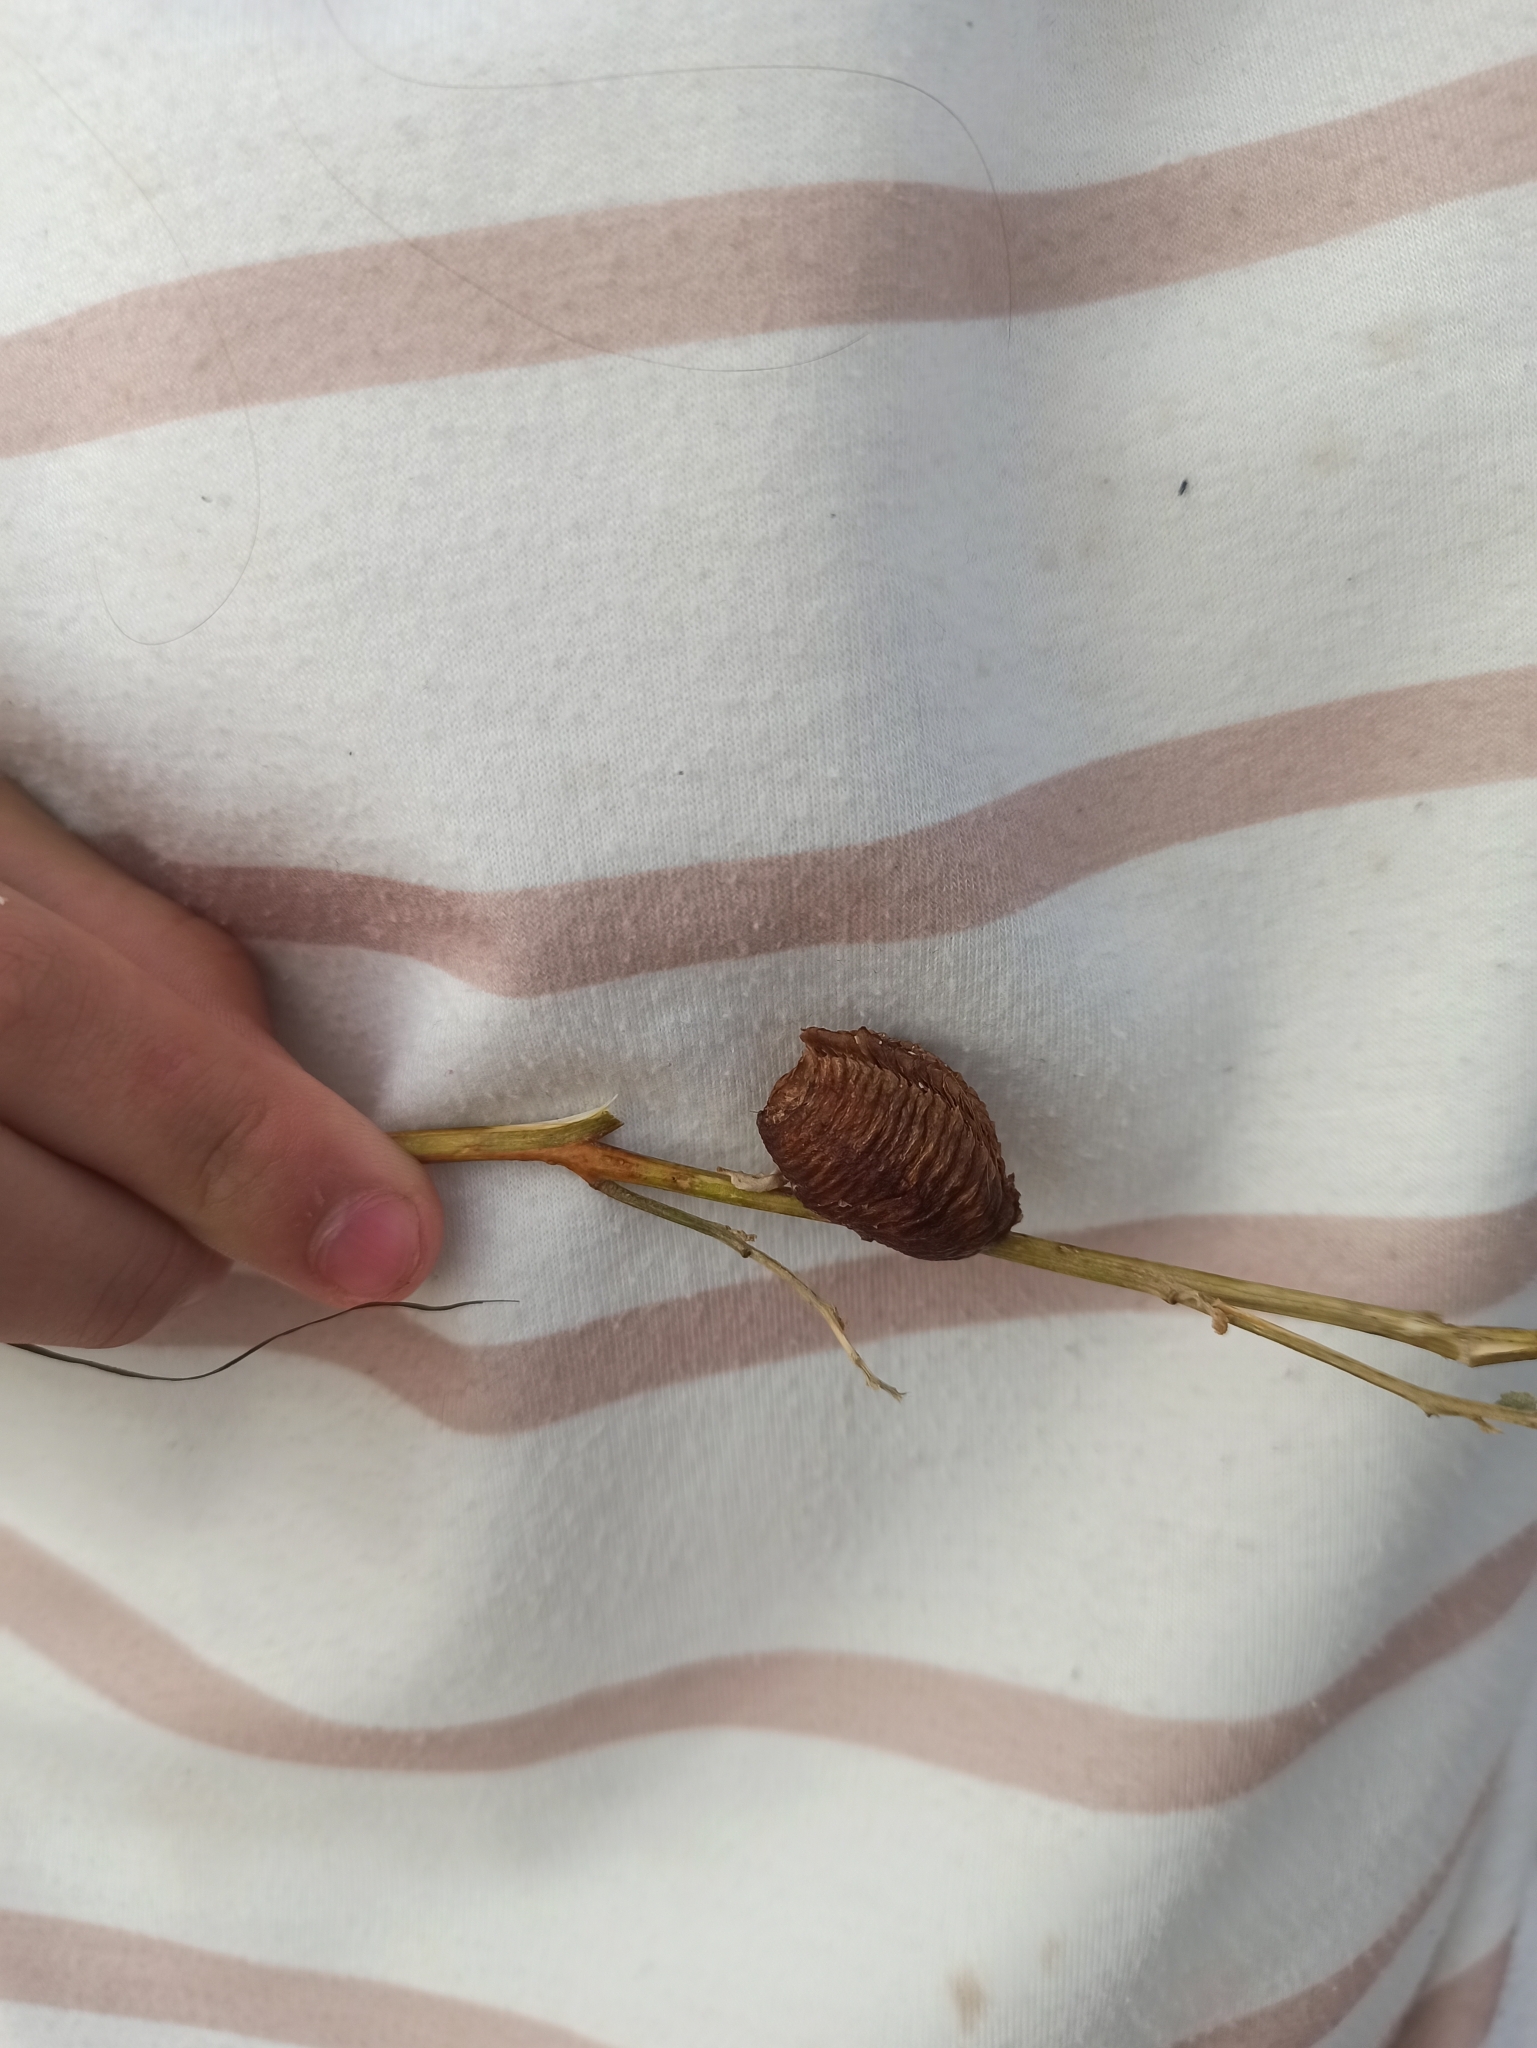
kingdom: Animalia
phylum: Arthropoda
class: Insecta
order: Mantodea
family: Mantidae
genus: Hierodula
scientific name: Hierodula transcaucasica
